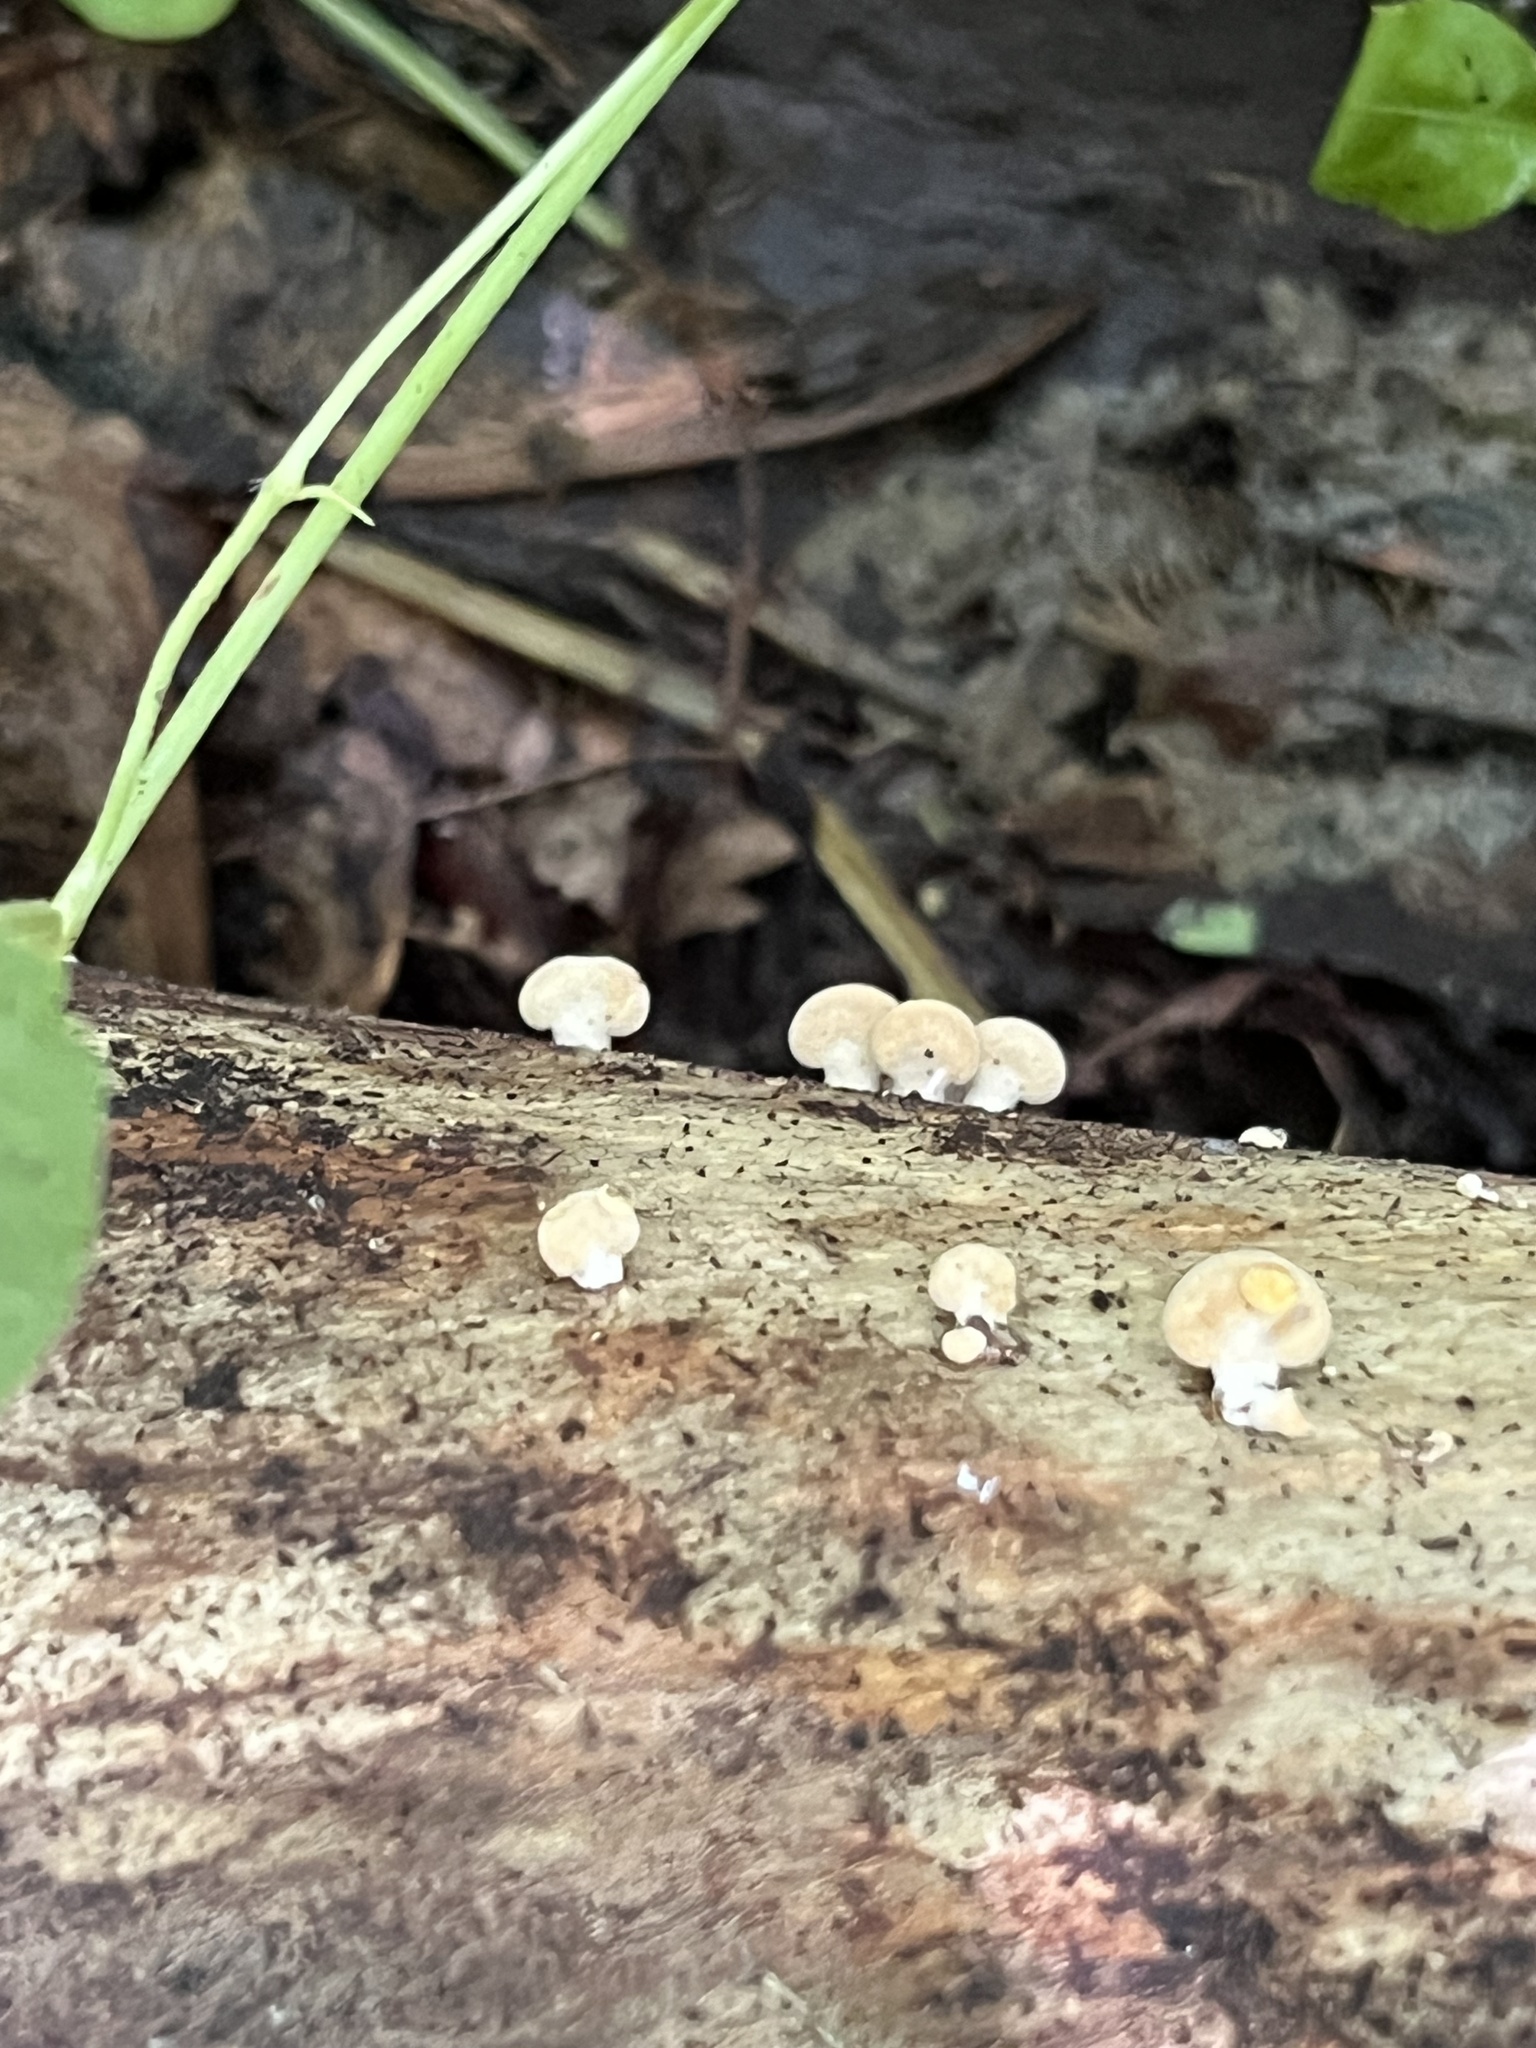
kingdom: Fungi
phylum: Basidiomycota
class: Agaricomycetes
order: Agaricales
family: Mycenaceae
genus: Panellus
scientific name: Panellus stipticus
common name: Bitter oysterling
